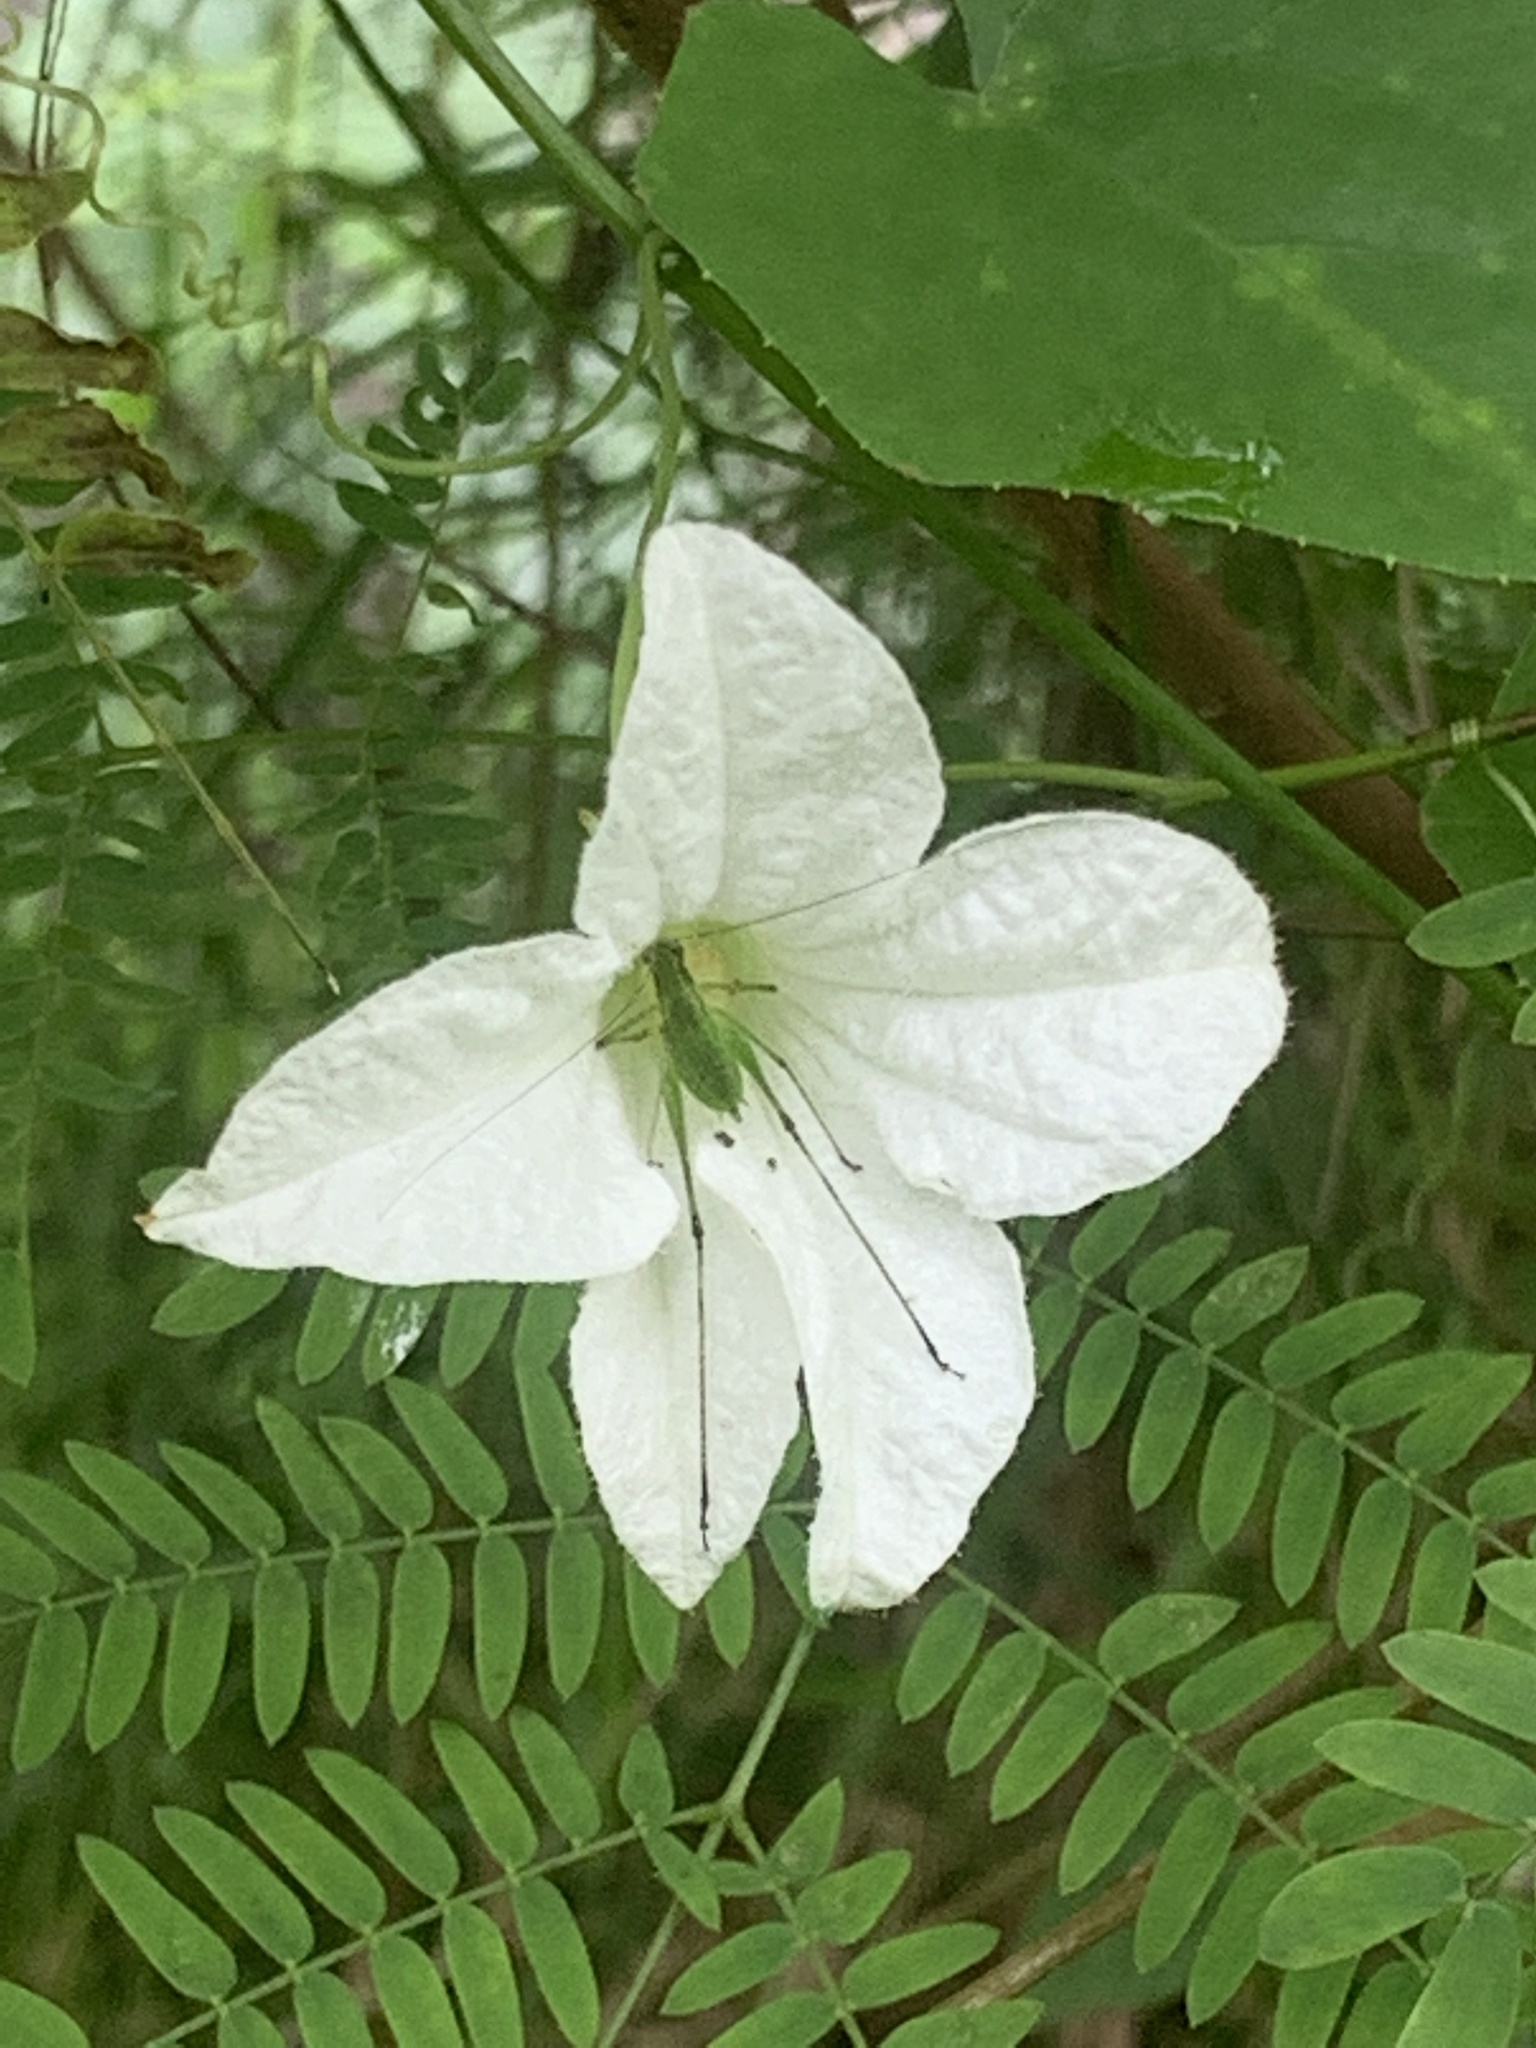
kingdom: Plantae
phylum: Tracheophyta
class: Magnoliopsida
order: Cucurbitales
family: Cucurbitaceae
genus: Coccinia
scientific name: Coccinia grandis
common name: Ivy gourd
